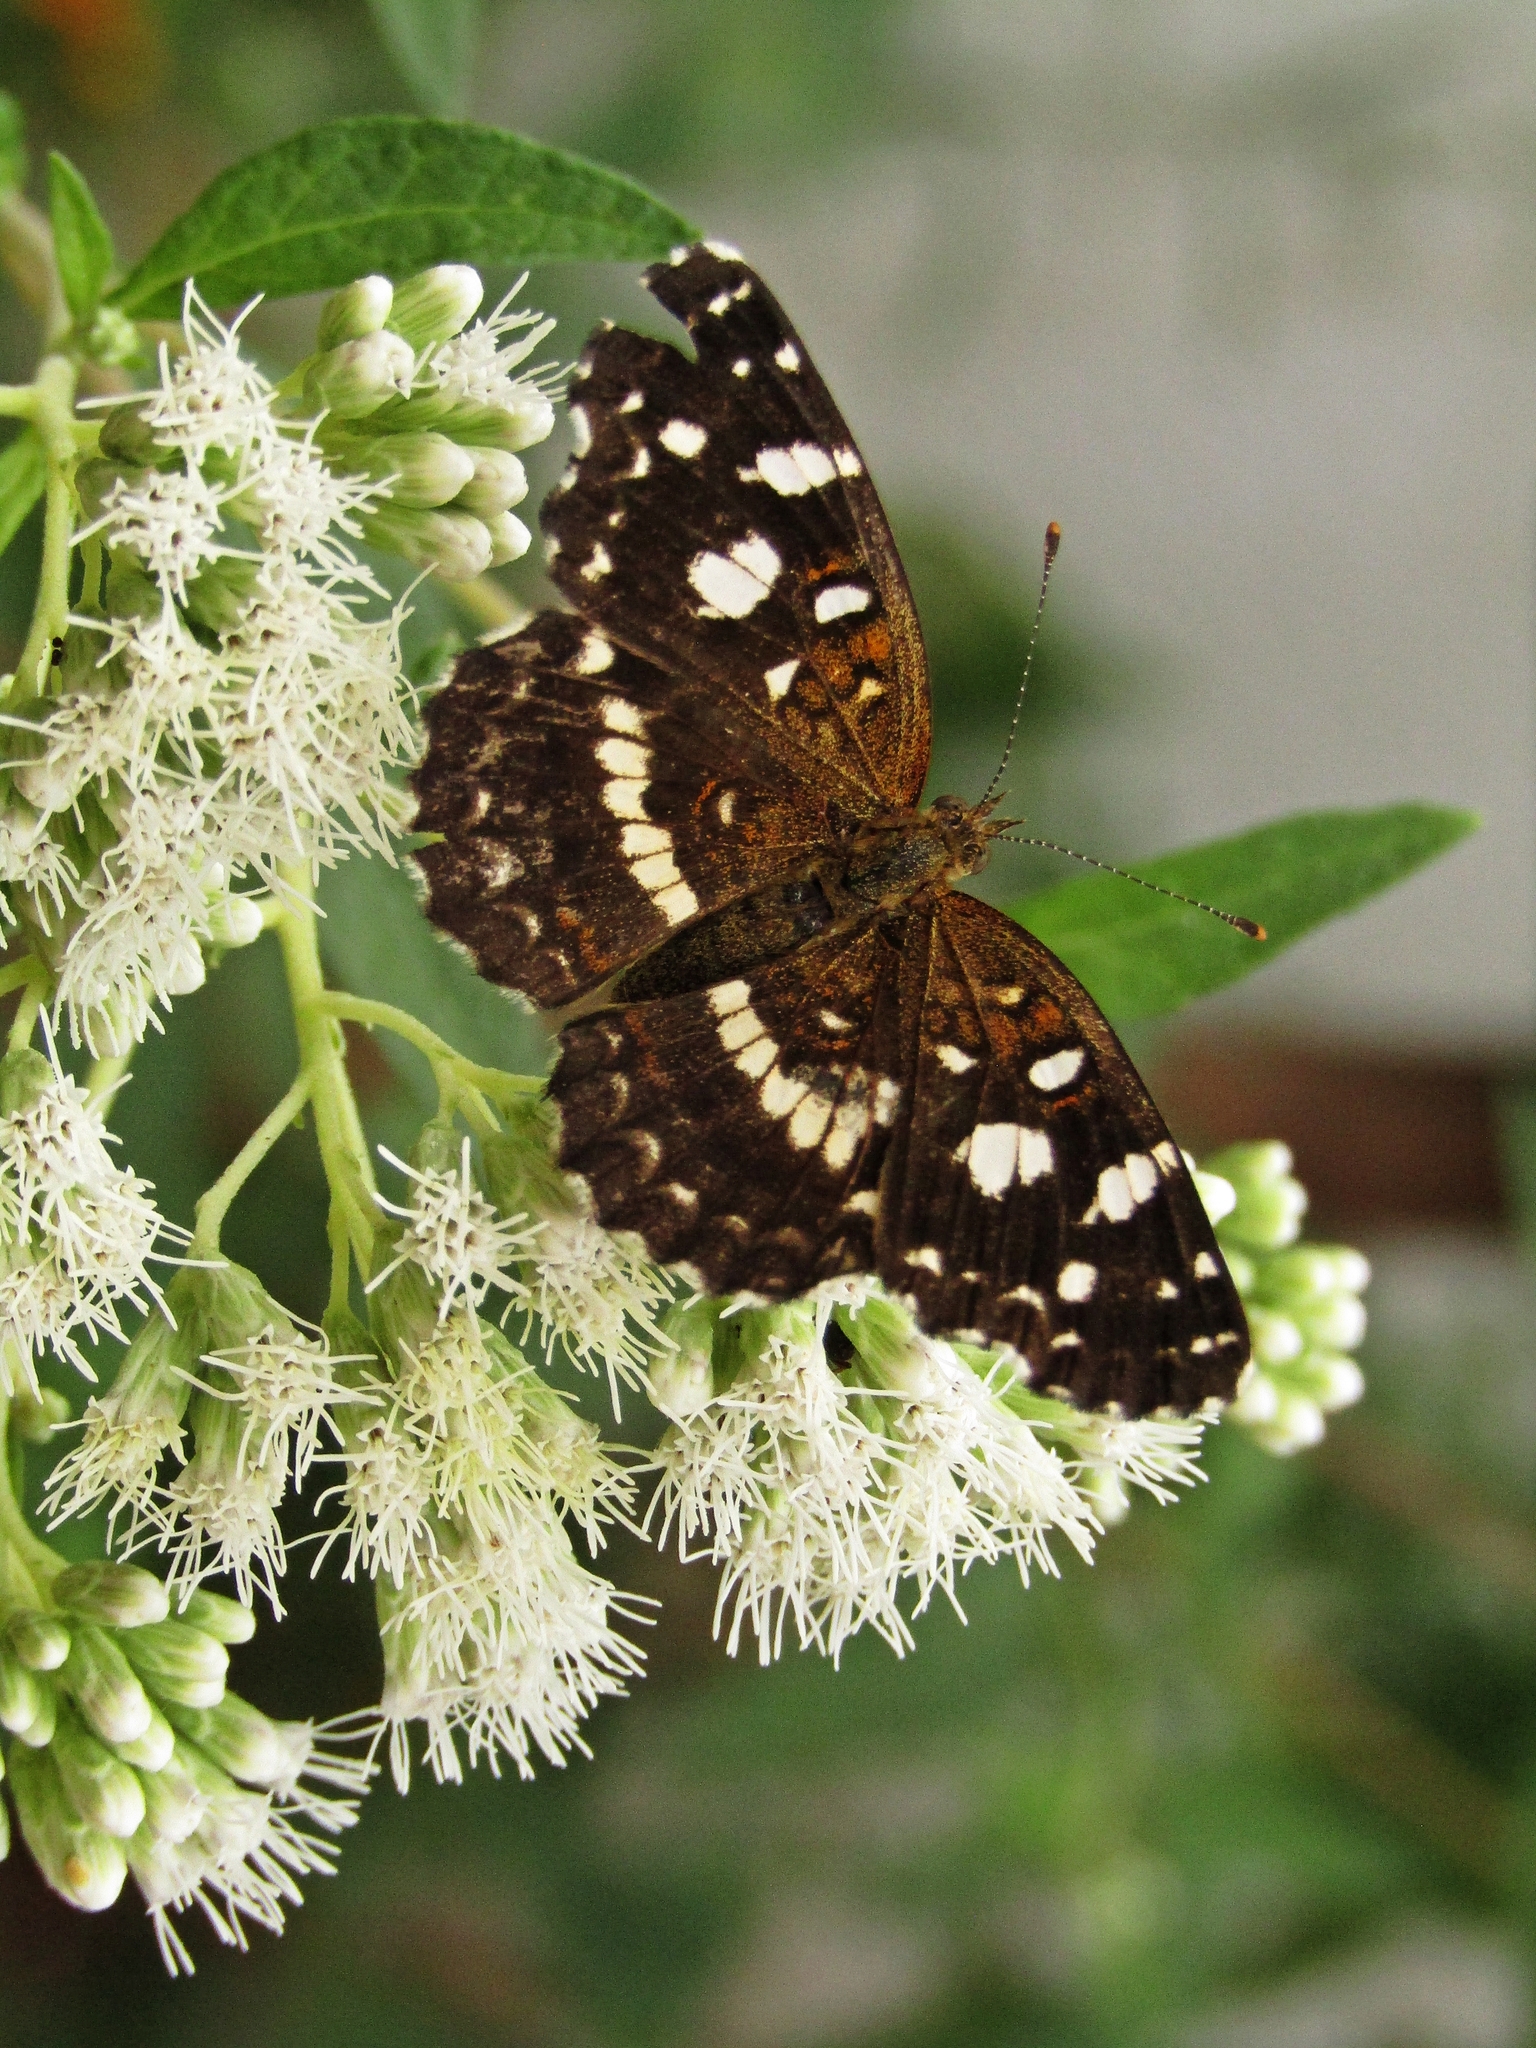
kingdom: Animalia
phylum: Arthropoda
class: Insecta
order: Lepidoptera
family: Nymphalidae
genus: Ortilia
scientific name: Ortilia ithra
